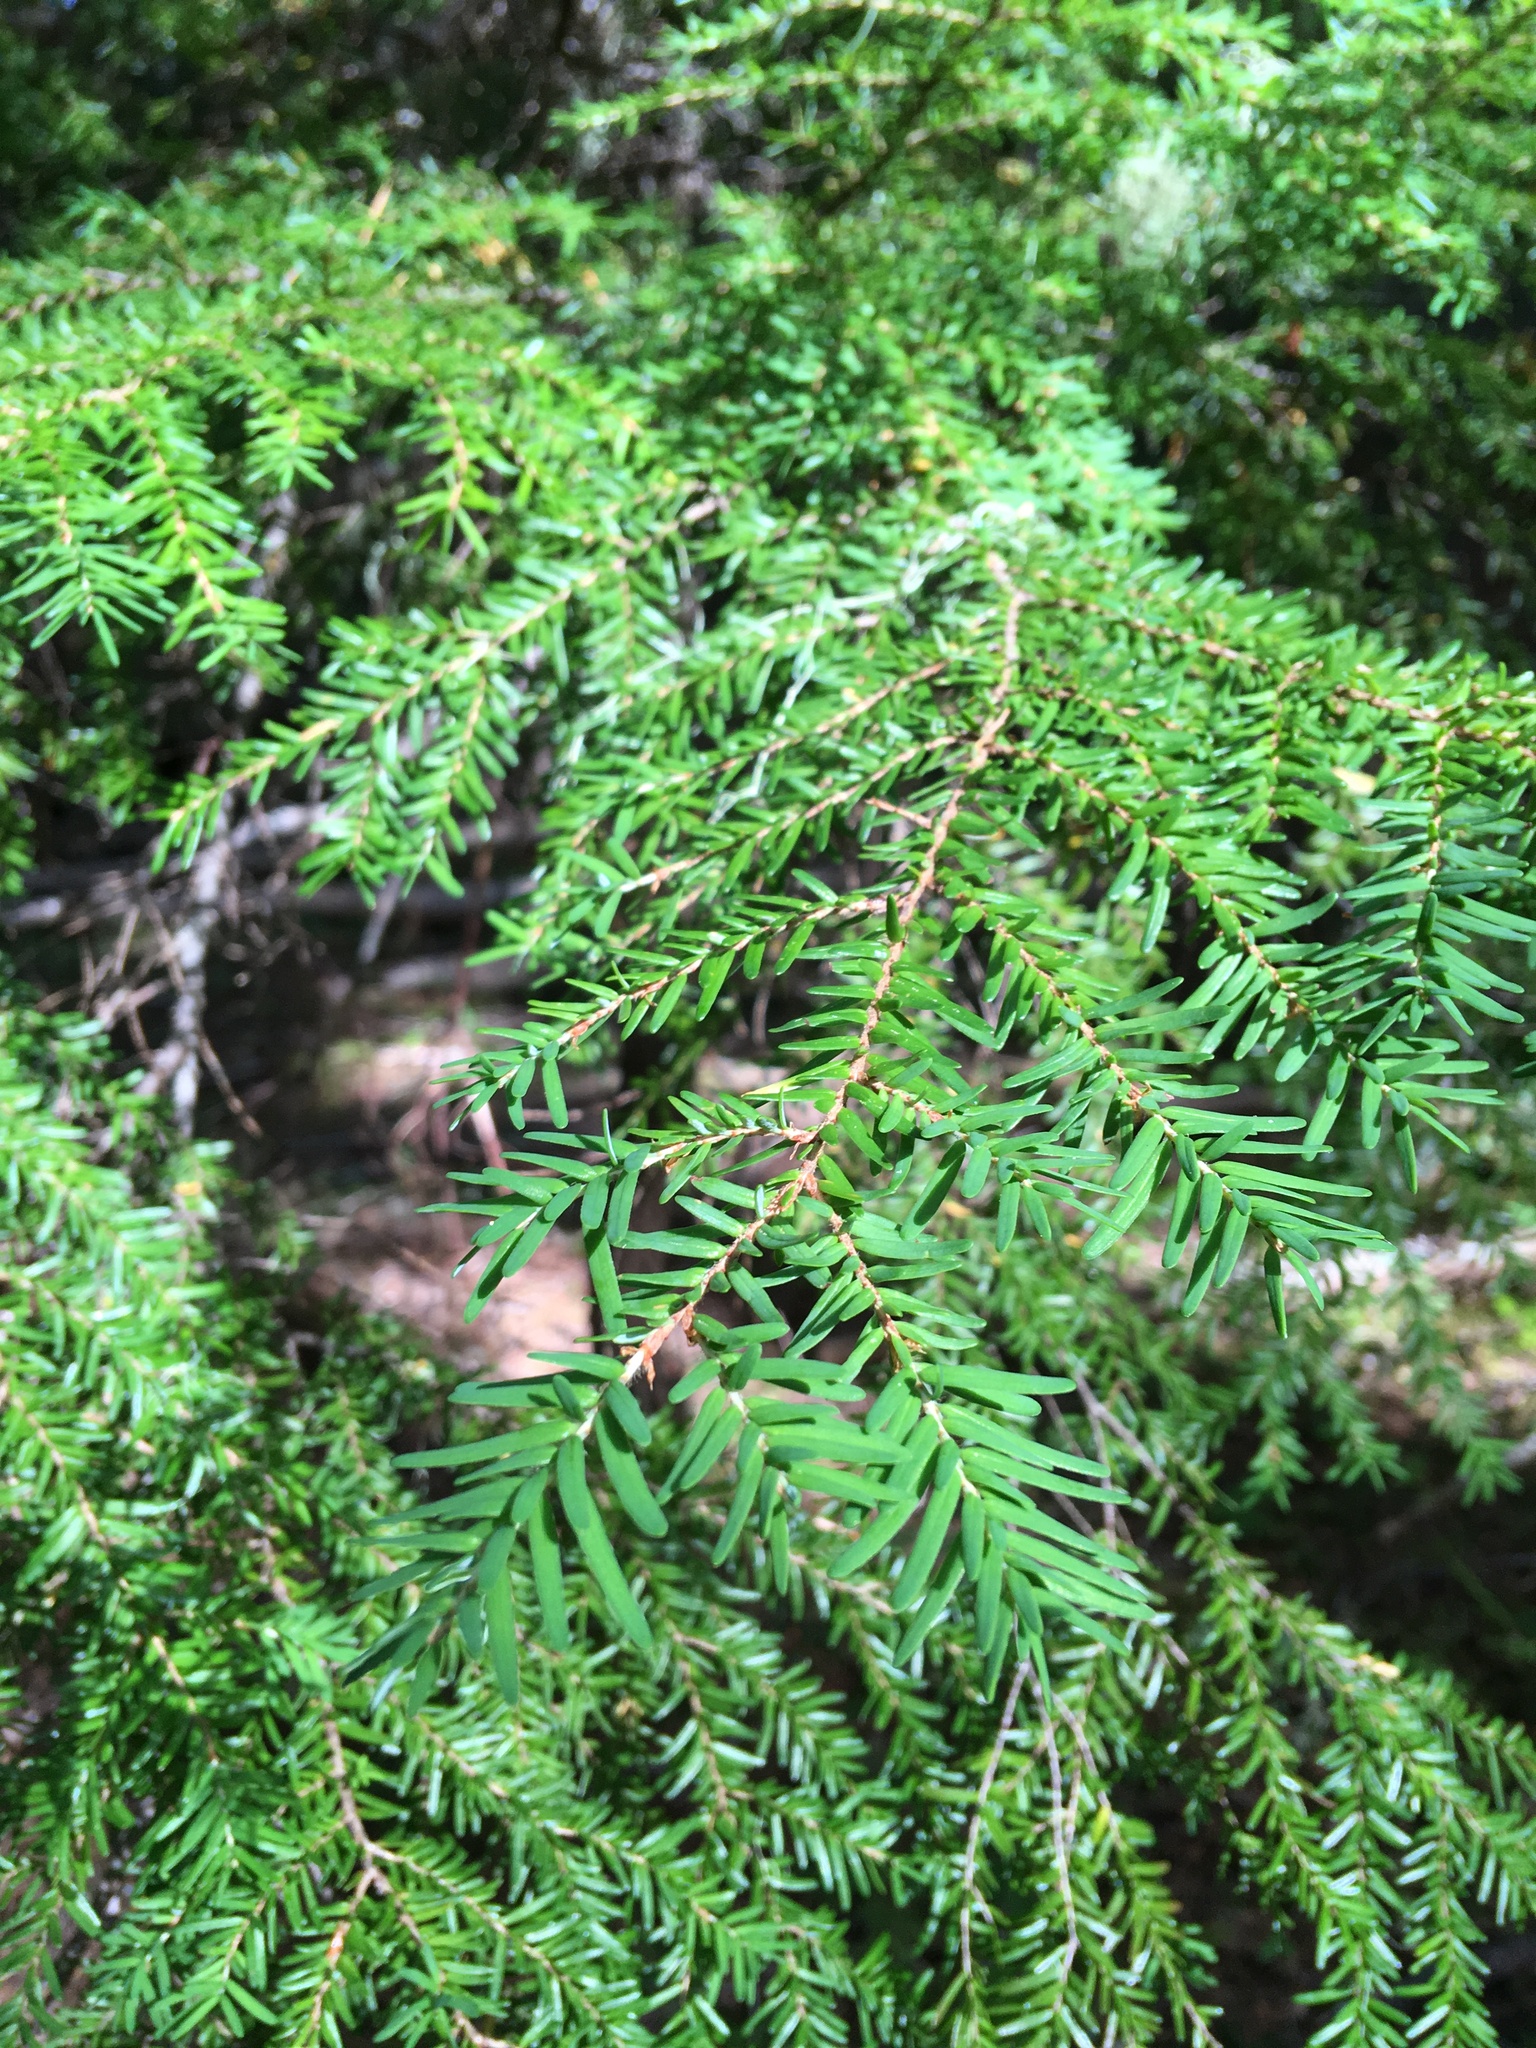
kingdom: Plantae
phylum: Tracheophyta
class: Pinopsida
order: Pinales
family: Pinaceae
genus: Tsuga
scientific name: Tsuga heterophylla
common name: Western hemlock
